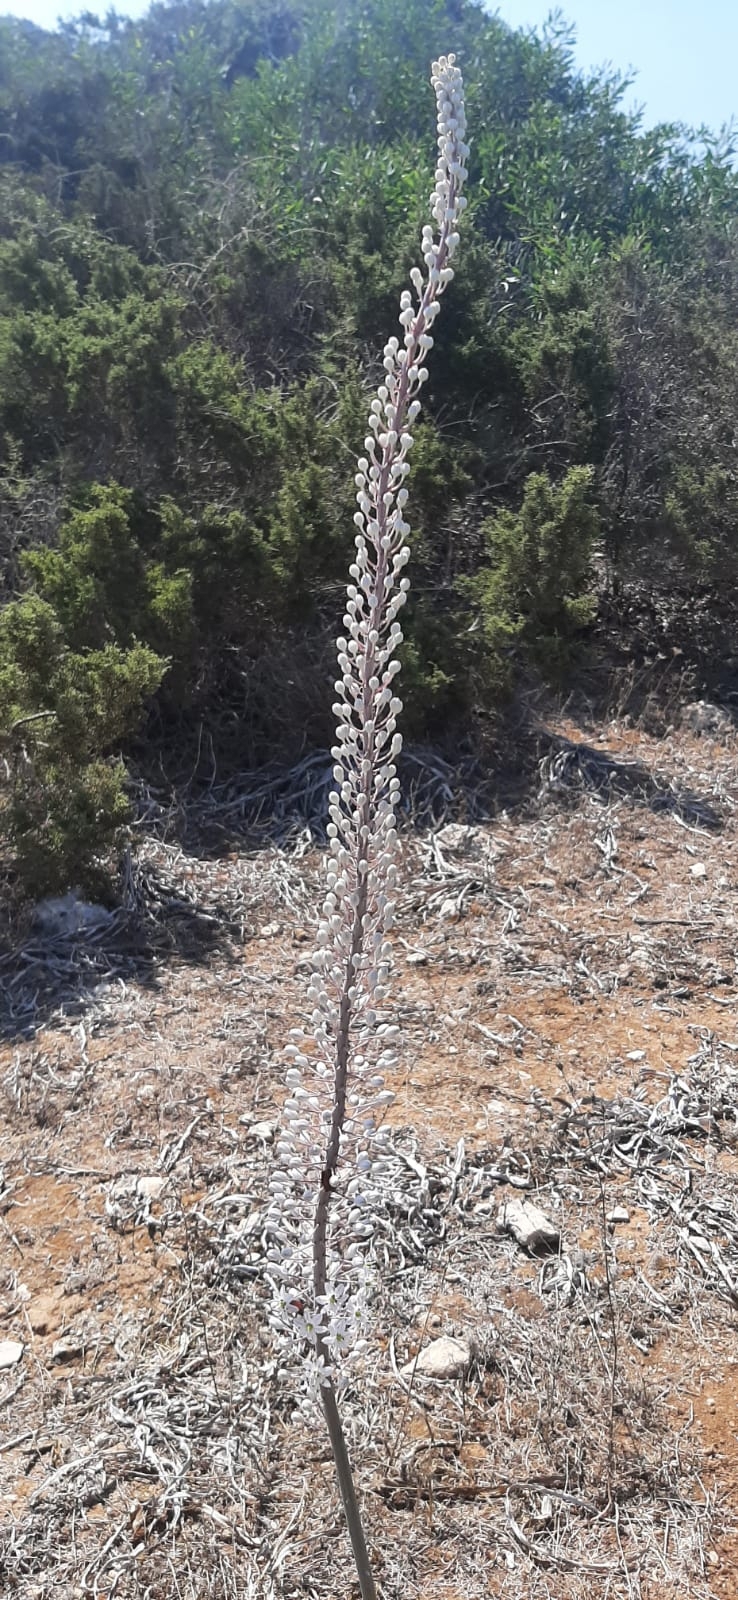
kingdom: Plantae
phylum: Tracheophyta
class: Liliopsida
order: Asparagales
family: Asparagaceae
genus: Drimia
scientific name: Drimia aphylla
